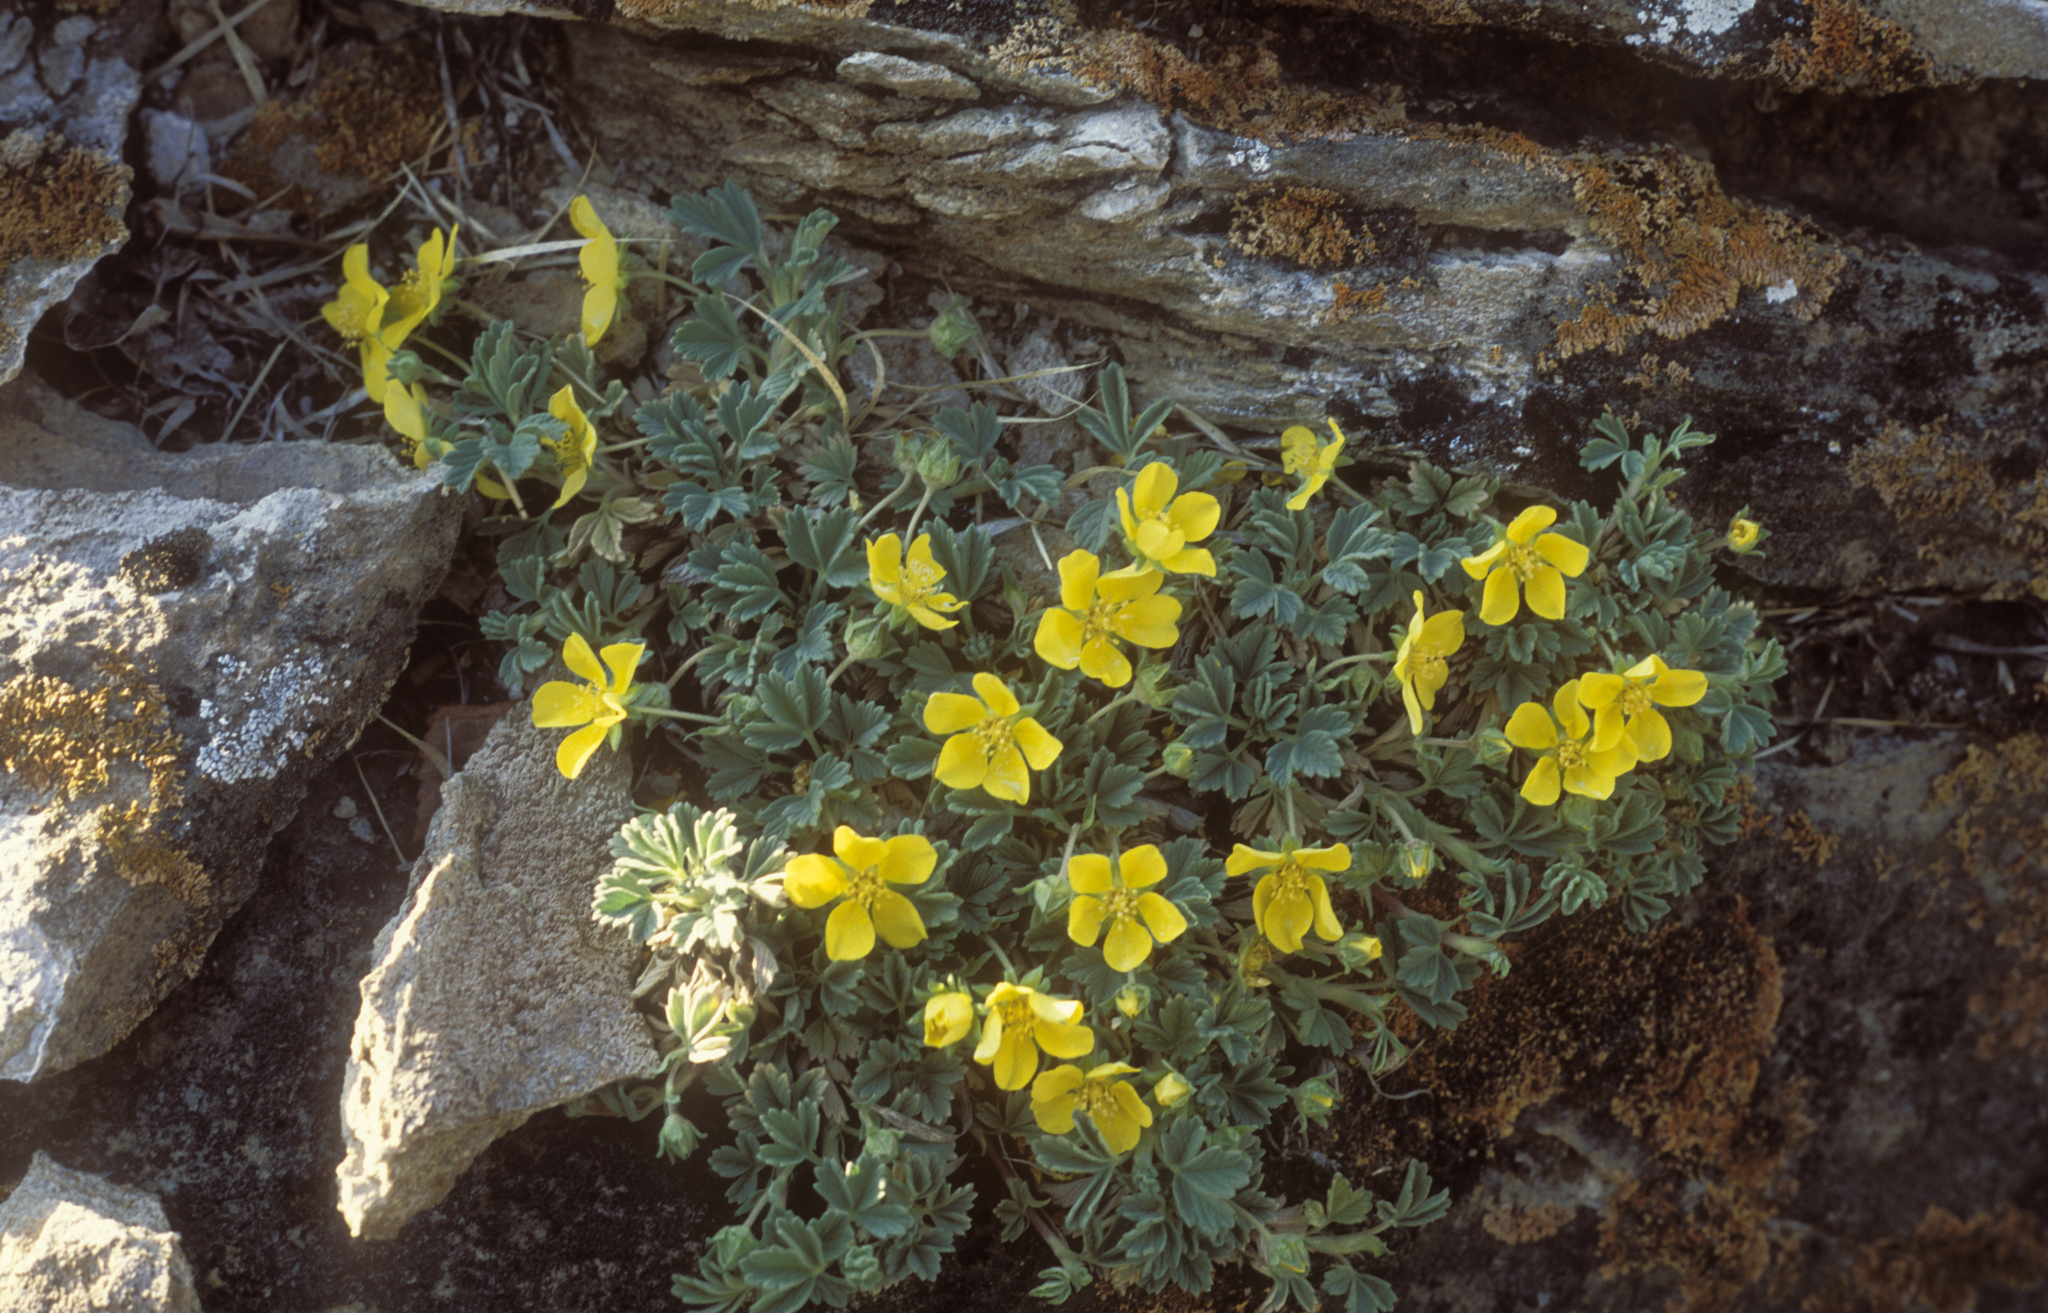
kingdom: Plantae
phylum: Tracheophyta
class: Magnoliopsida
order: Rosales
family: Rosaceae
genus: Potentilla
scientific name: Potentilla acaulis
